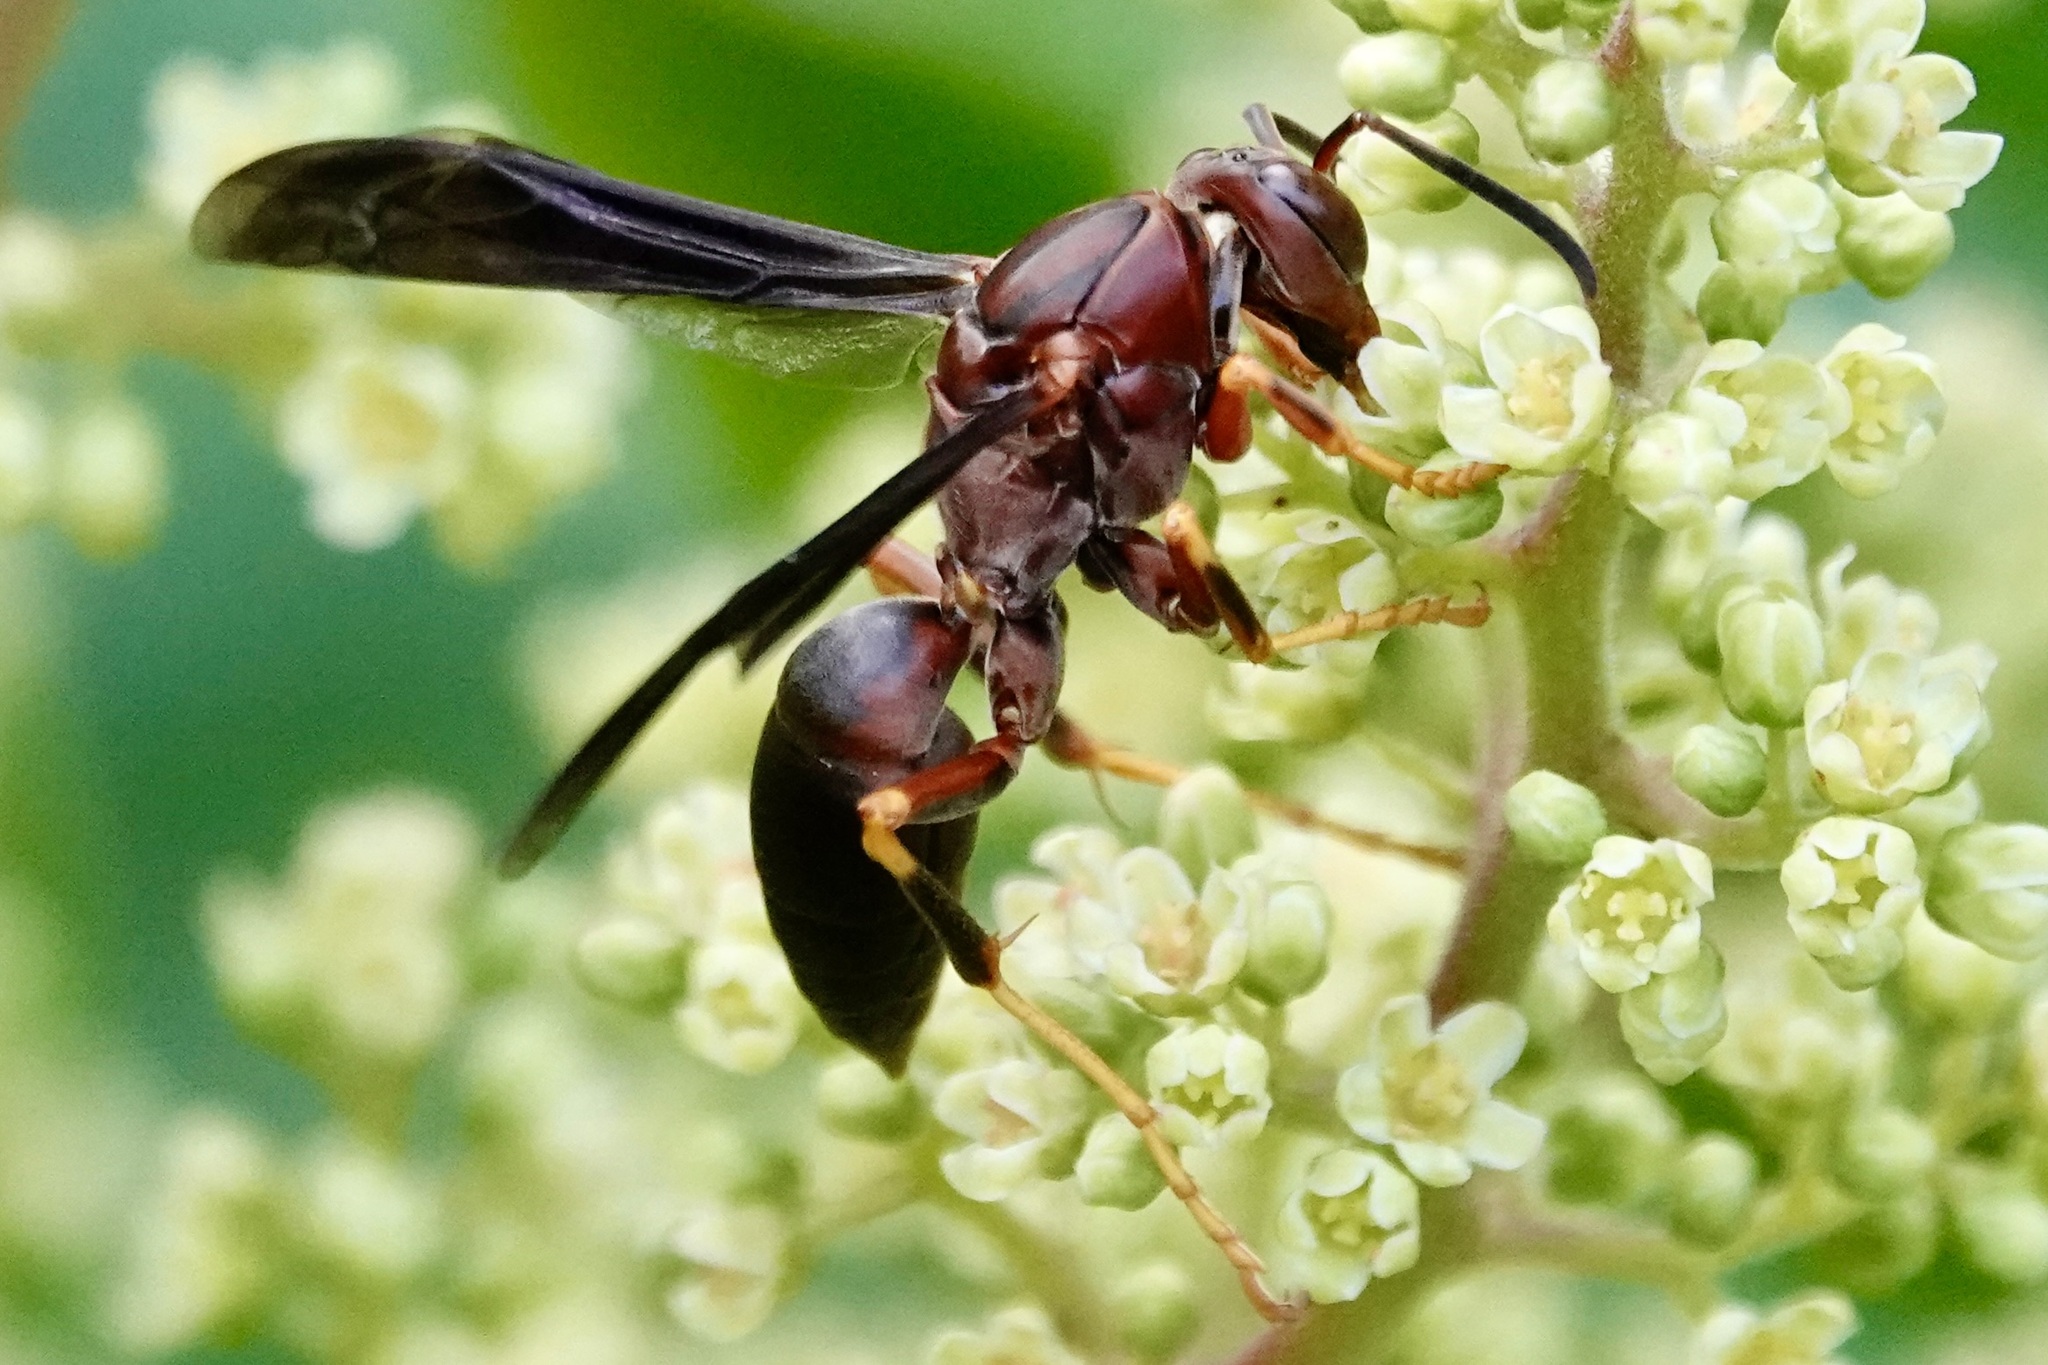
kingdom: Animalia
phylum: Arthropoda
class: Insecta
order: Hymenoptera
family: Eumenidae
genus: Polistes
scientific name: Polistes metricus
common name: Metric paper wasp
